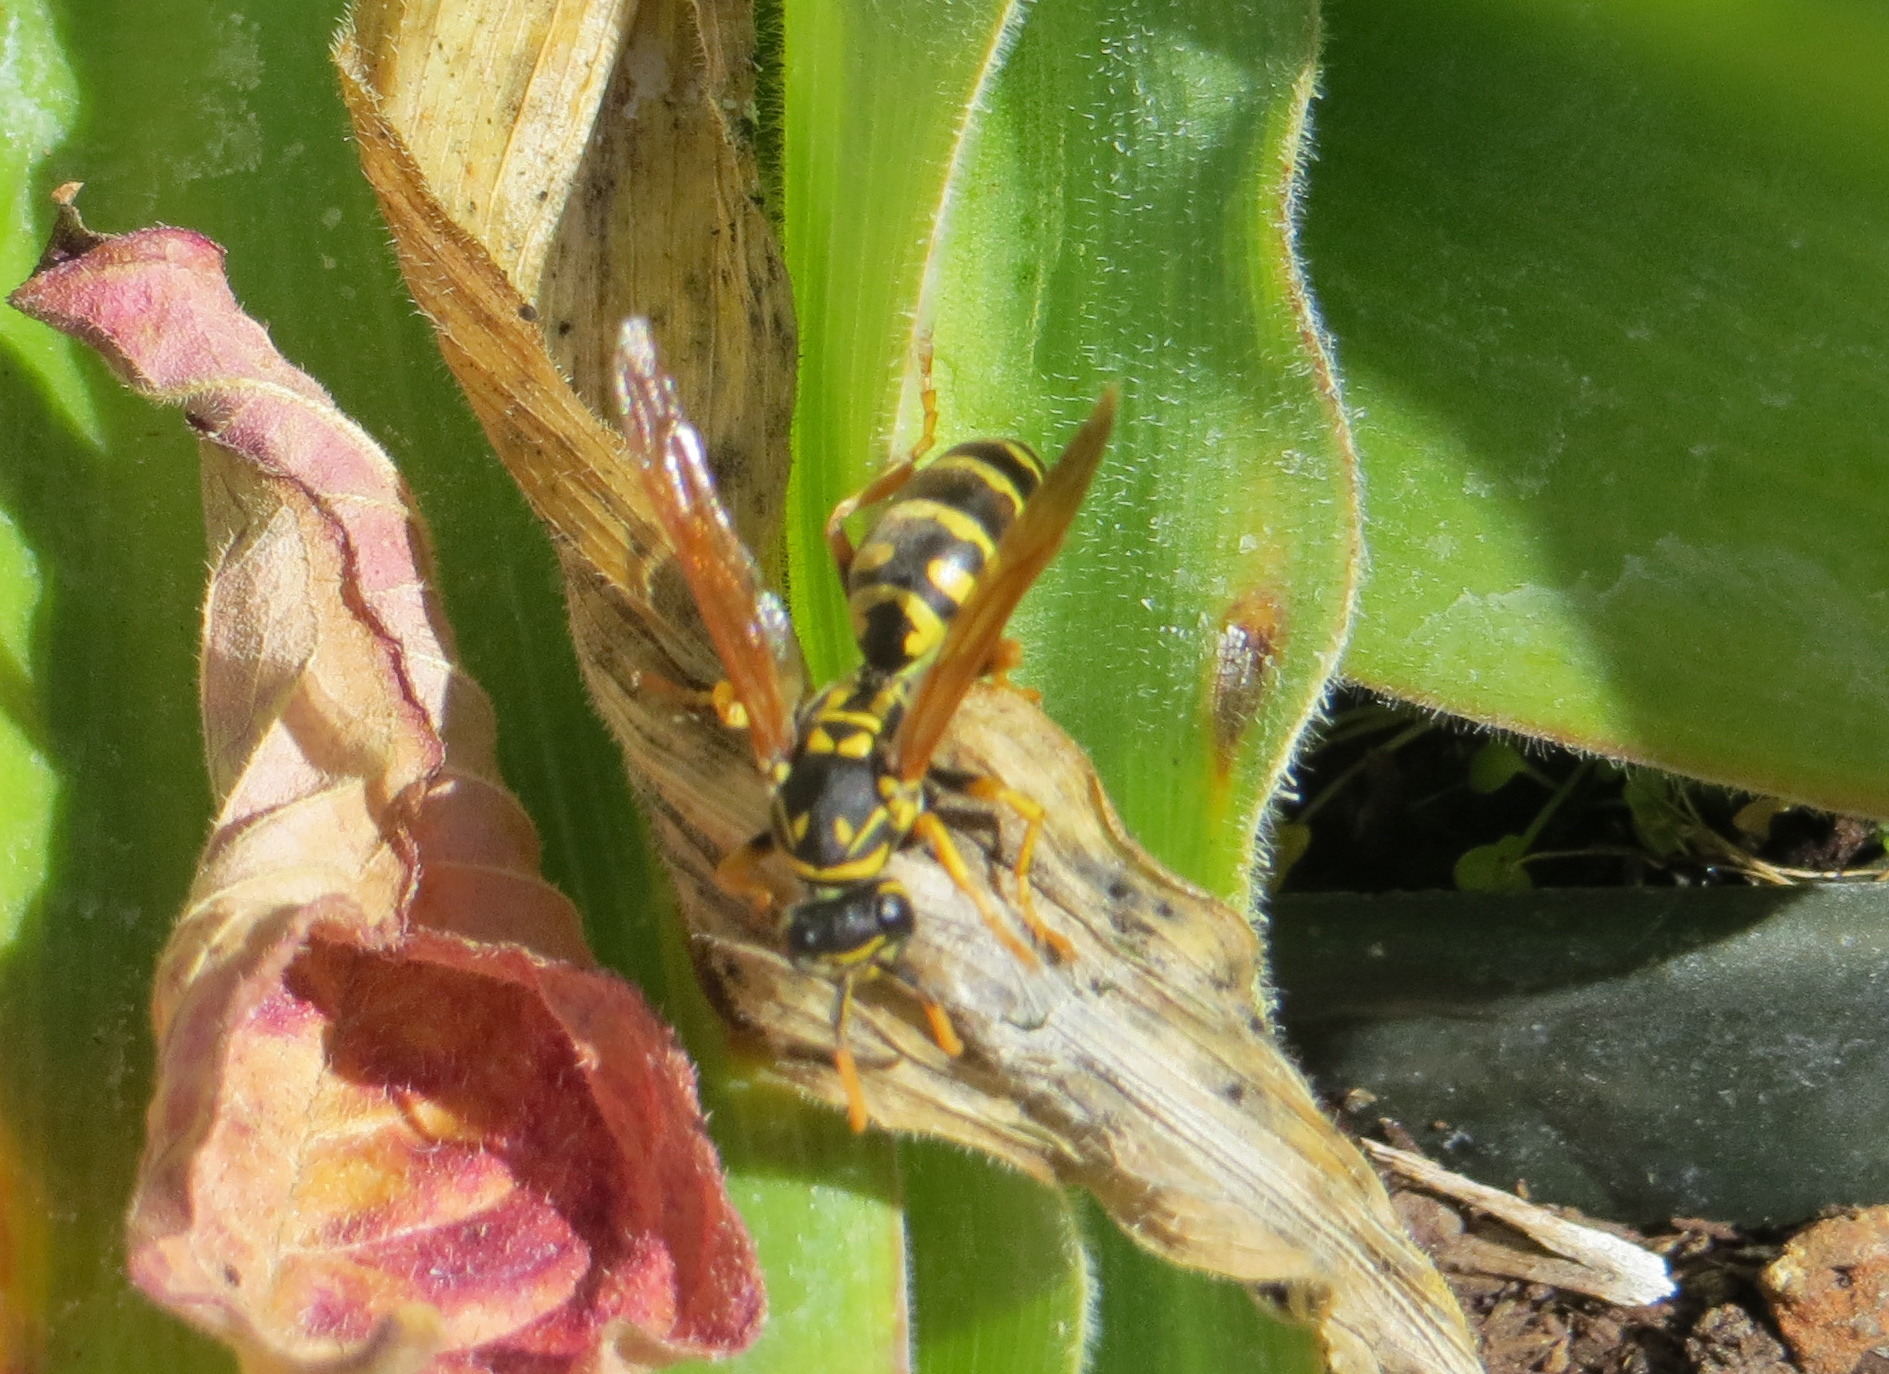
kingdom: Animalia
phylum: Arthropoda
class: Insecta
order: Hymenoptera
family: Eumenidae
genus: Polistes
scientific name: Polistes dominula
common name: Paper wasp
